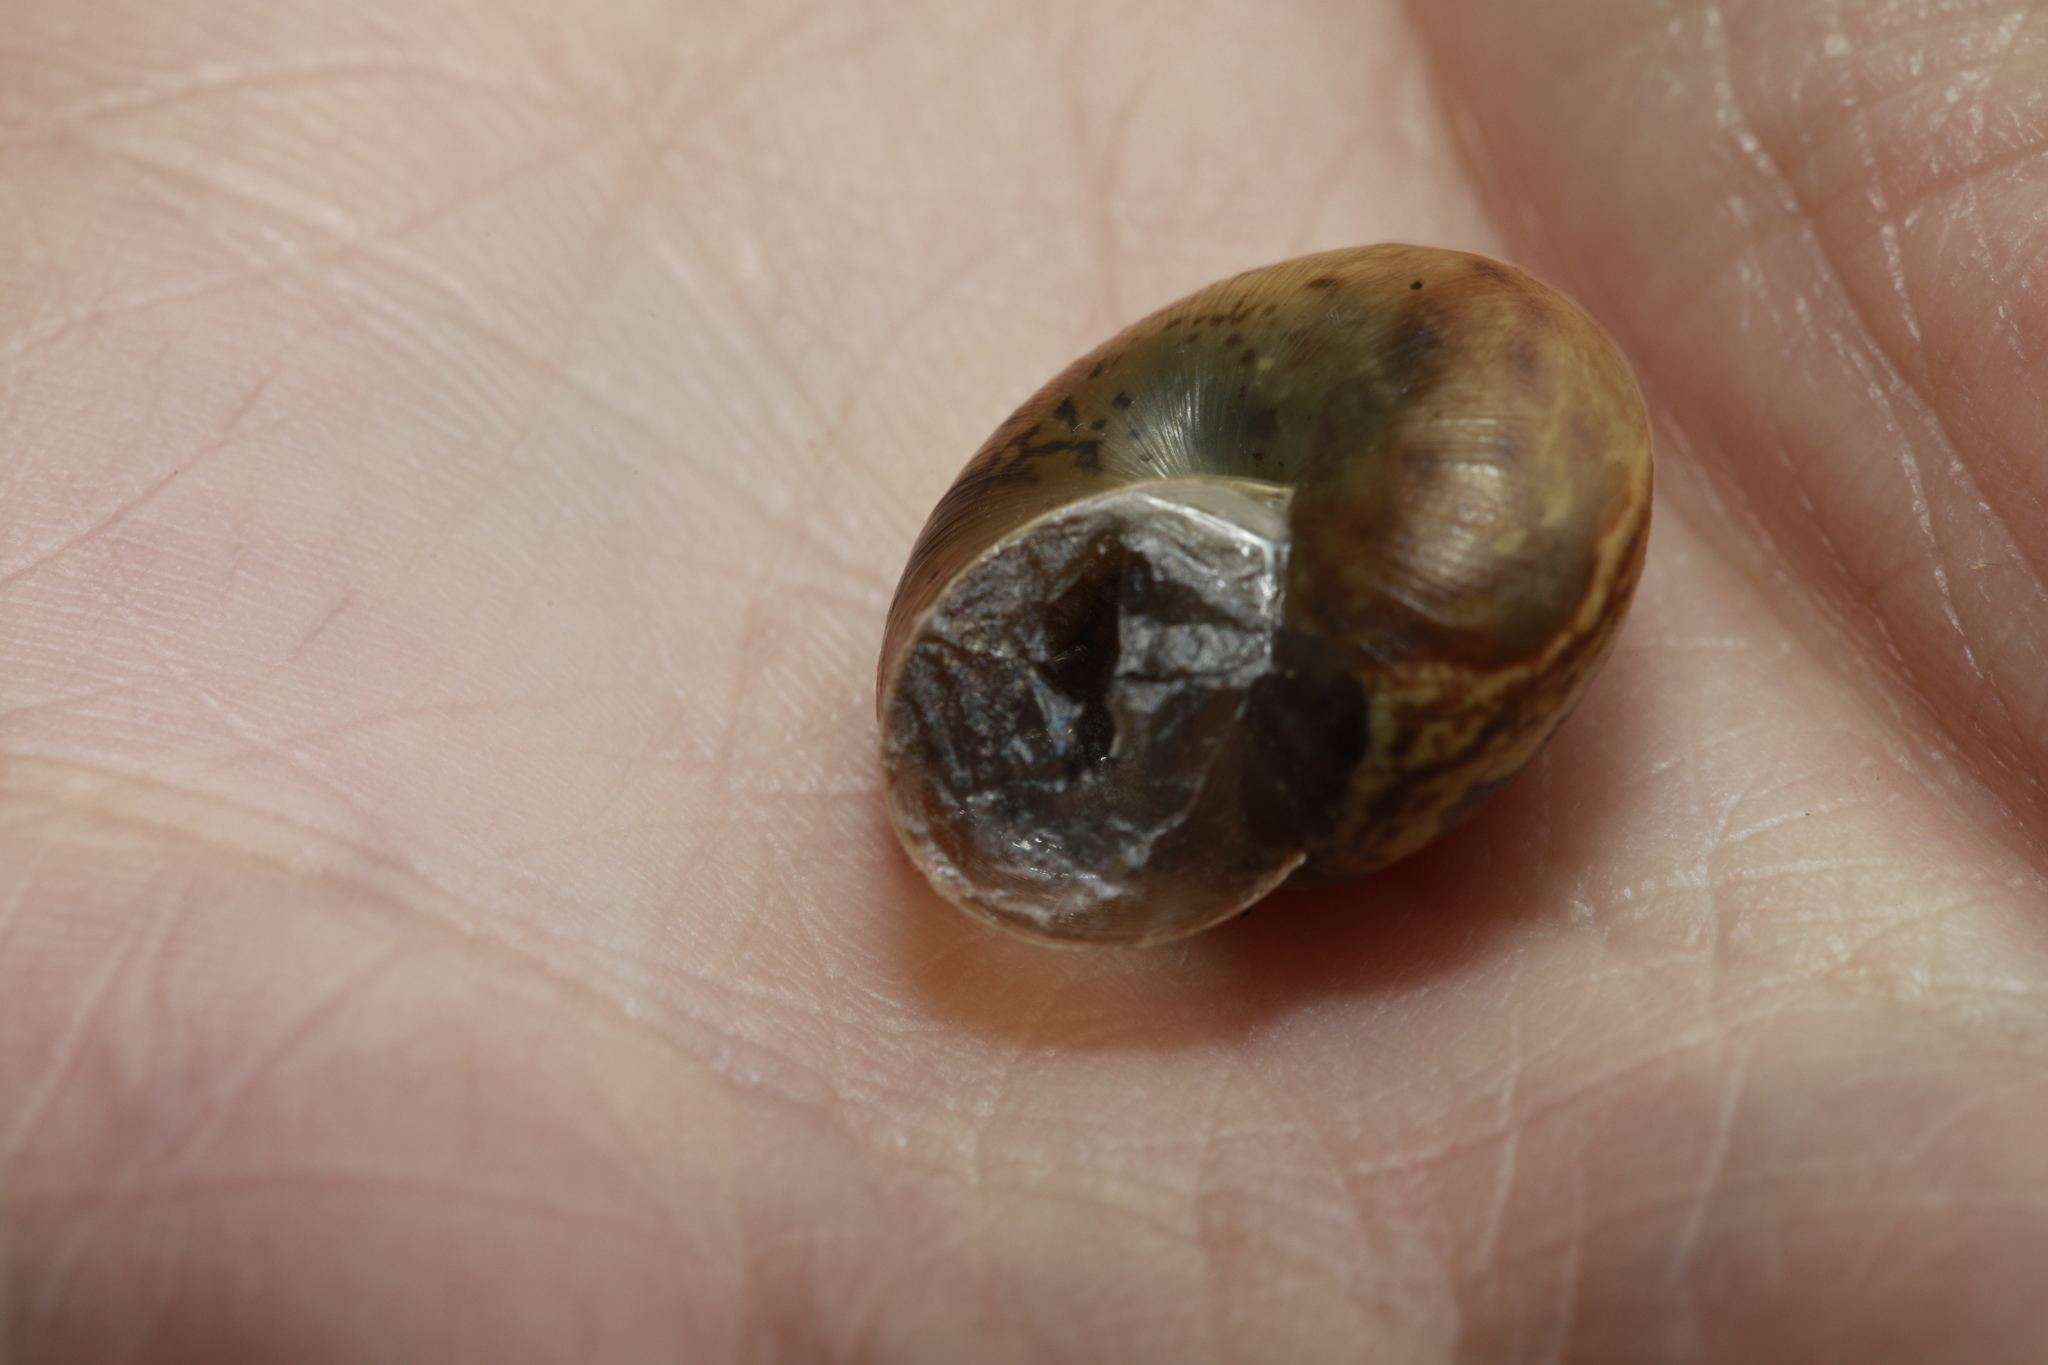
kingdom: Animalia
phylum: Mollusca
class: Gastropoda
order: Stylommatophora
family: Hygromiidae
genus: Monacha
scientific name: Monacha cantiana
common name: Kentish snail
